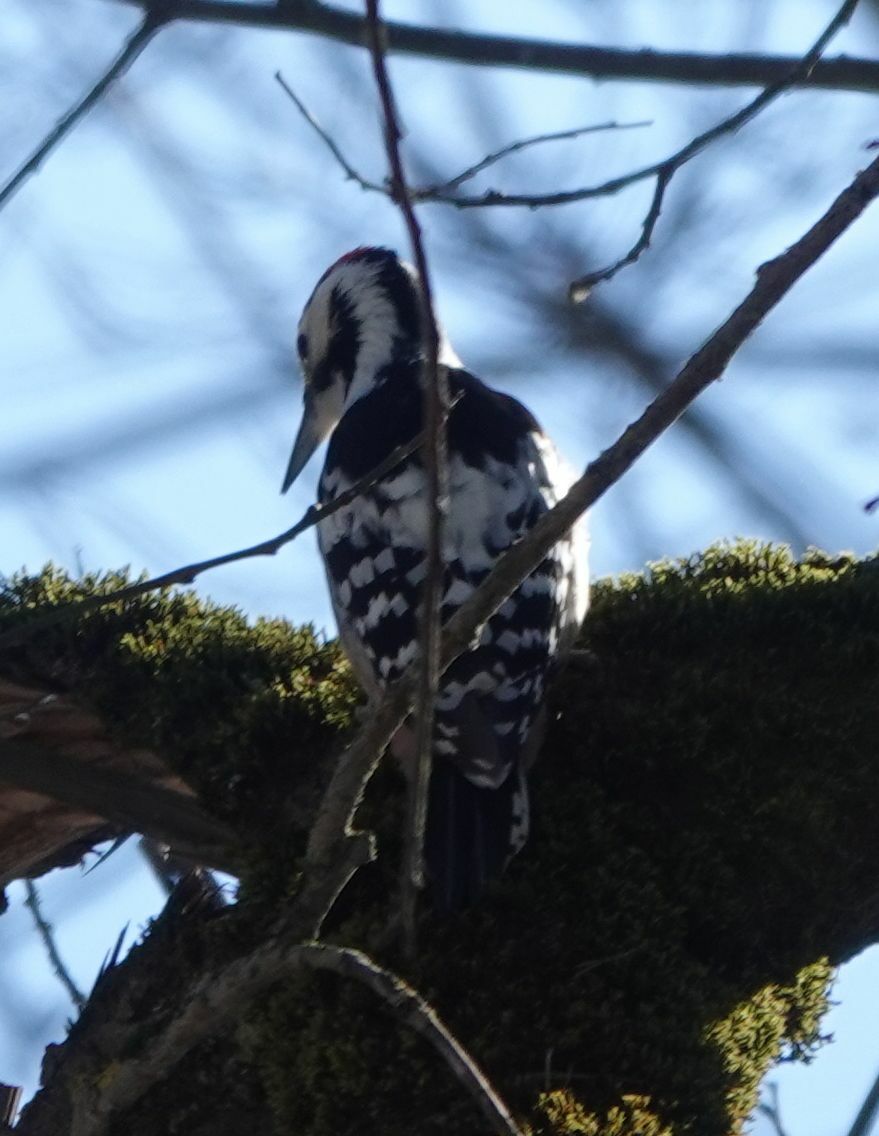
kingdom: Animalia
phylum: Chordata
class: Aves
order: Piciformes
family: Picidae
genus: Dendrocopos
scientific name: Dendrocopos leucotos
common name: White-backed woodpecker
